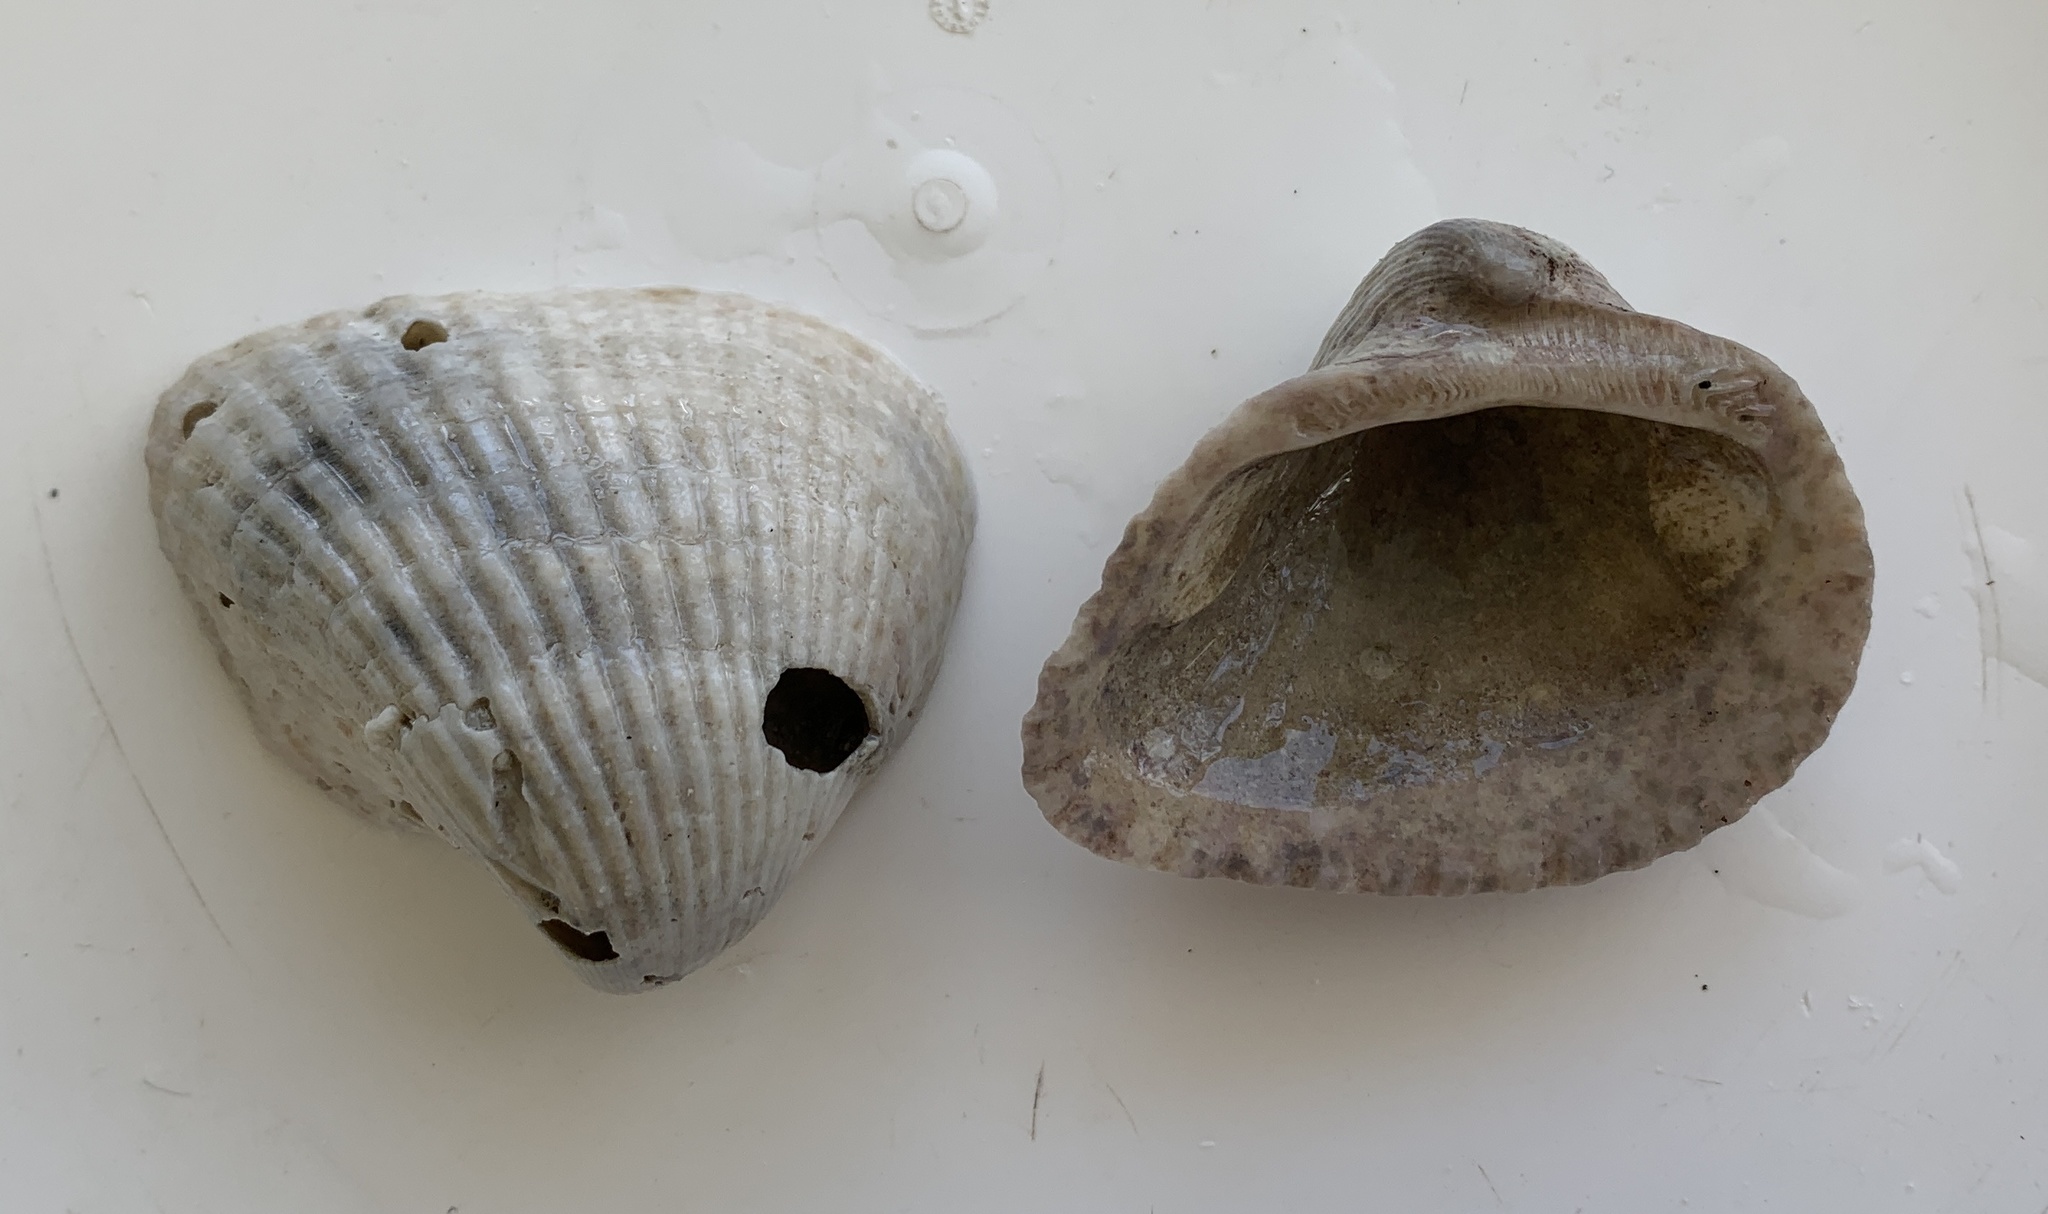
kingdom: Animalia
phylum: Mollusca
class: Bivalvia
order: Arcida
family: Noetiidae
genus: Noetia
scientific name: Noetia ponderosa
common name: Ponderous ark
